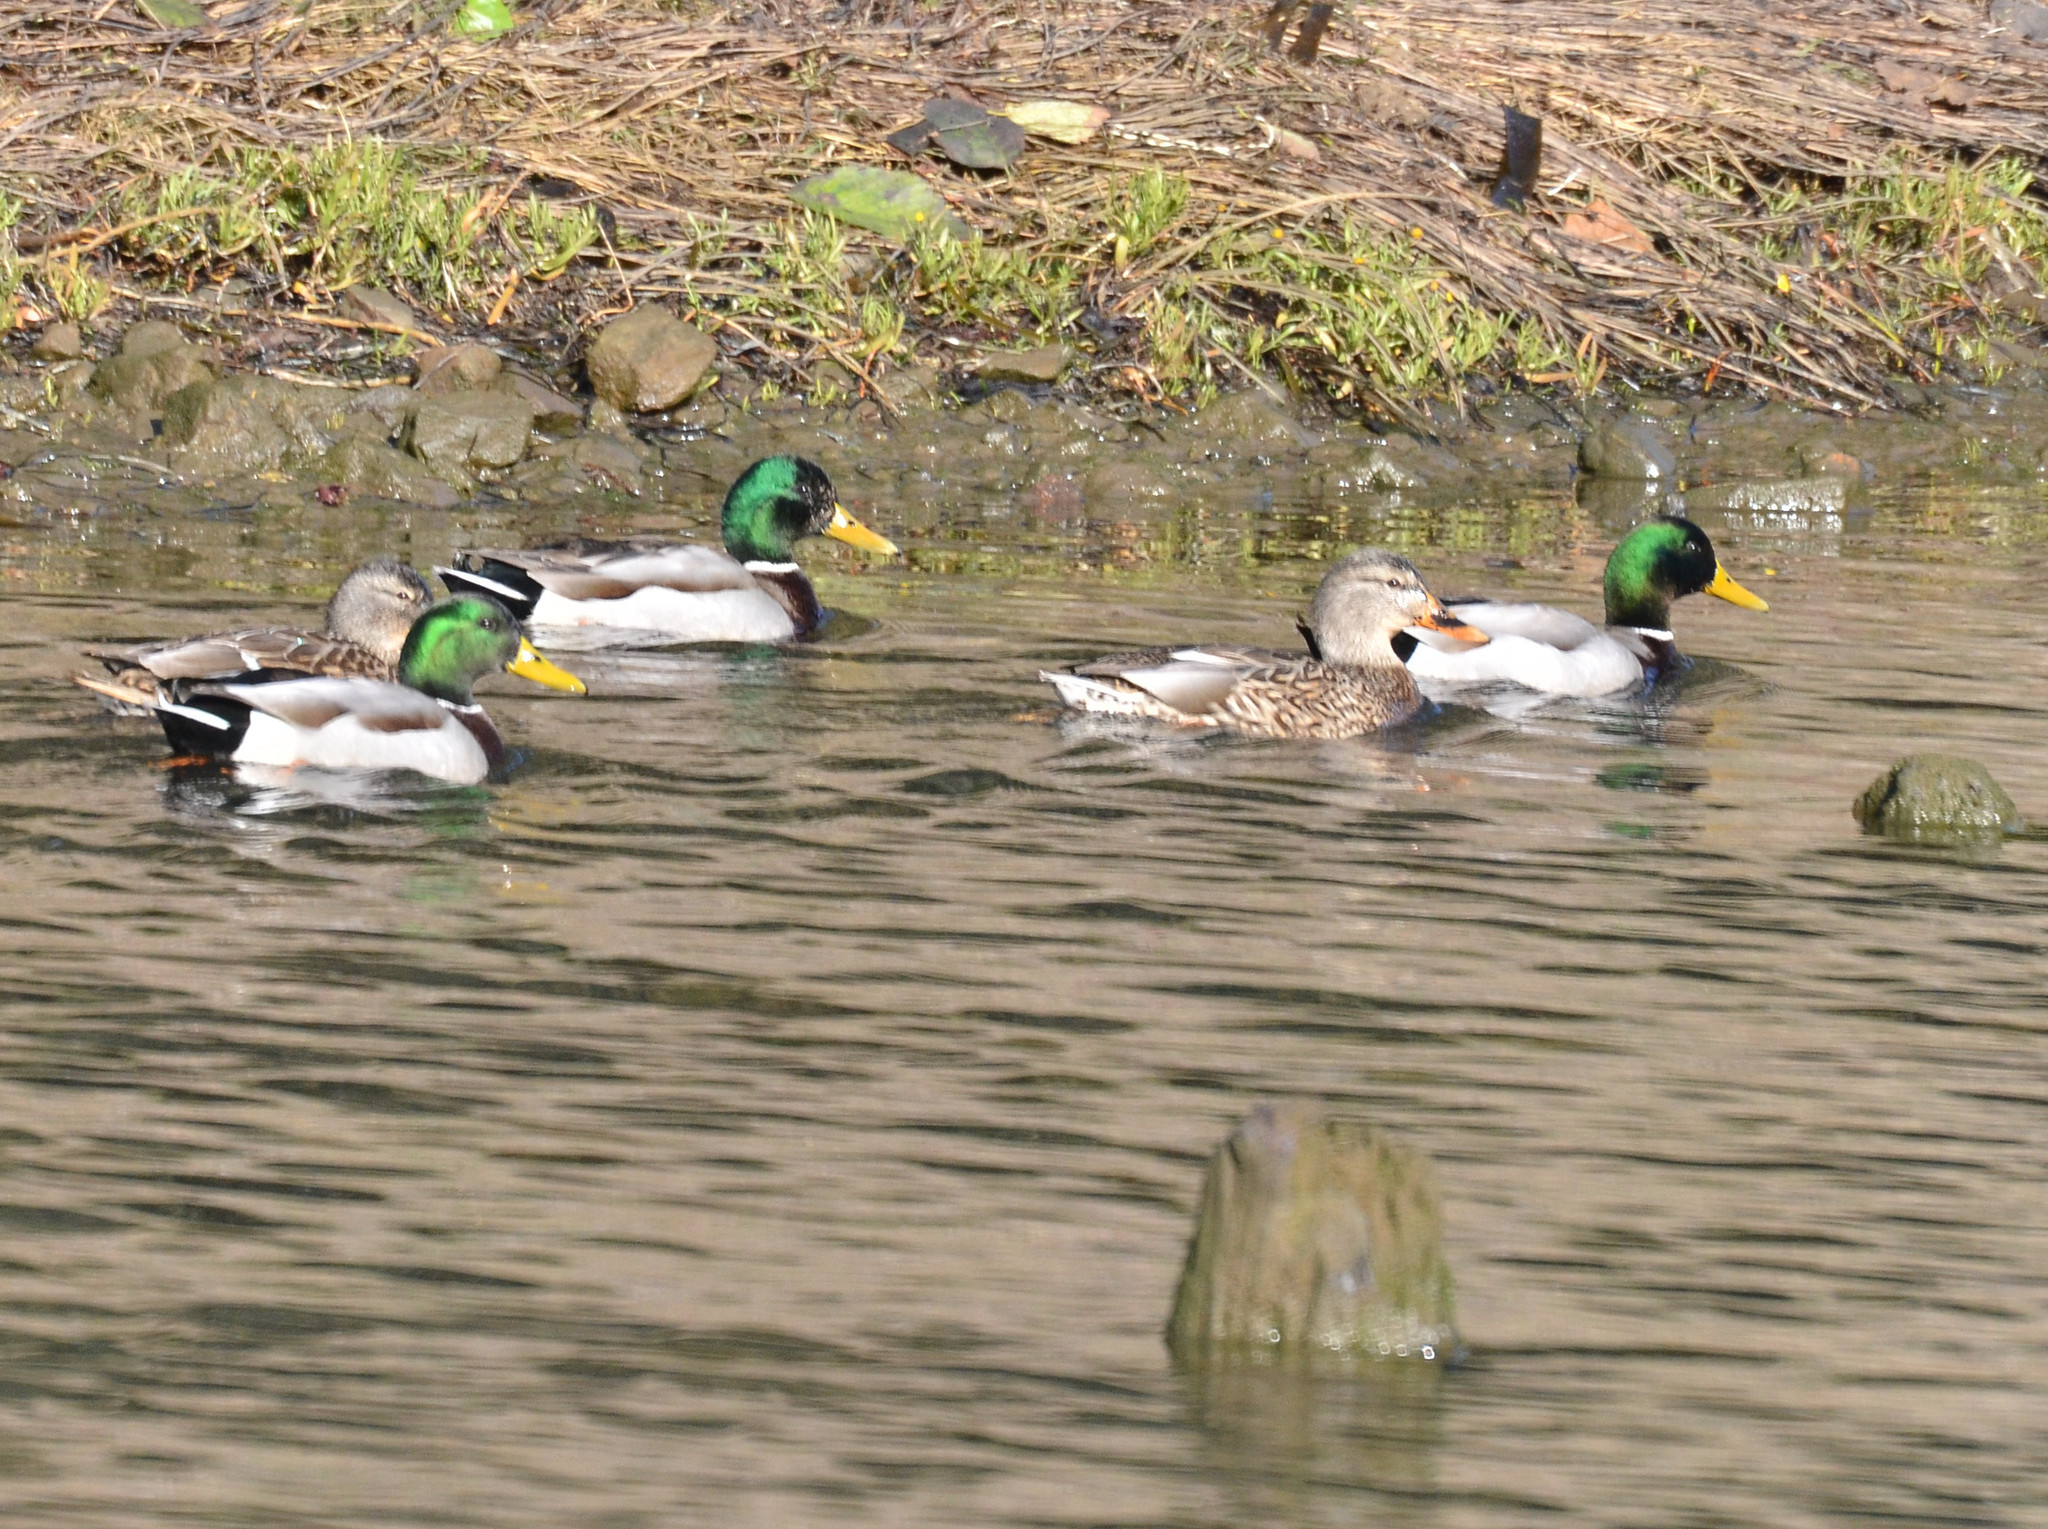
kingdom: Animalia
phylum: Chordata
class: Aves
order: Anseriformes
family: Anatidae
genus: Anas
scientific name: Anas platyrhynchos
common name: Mallard
